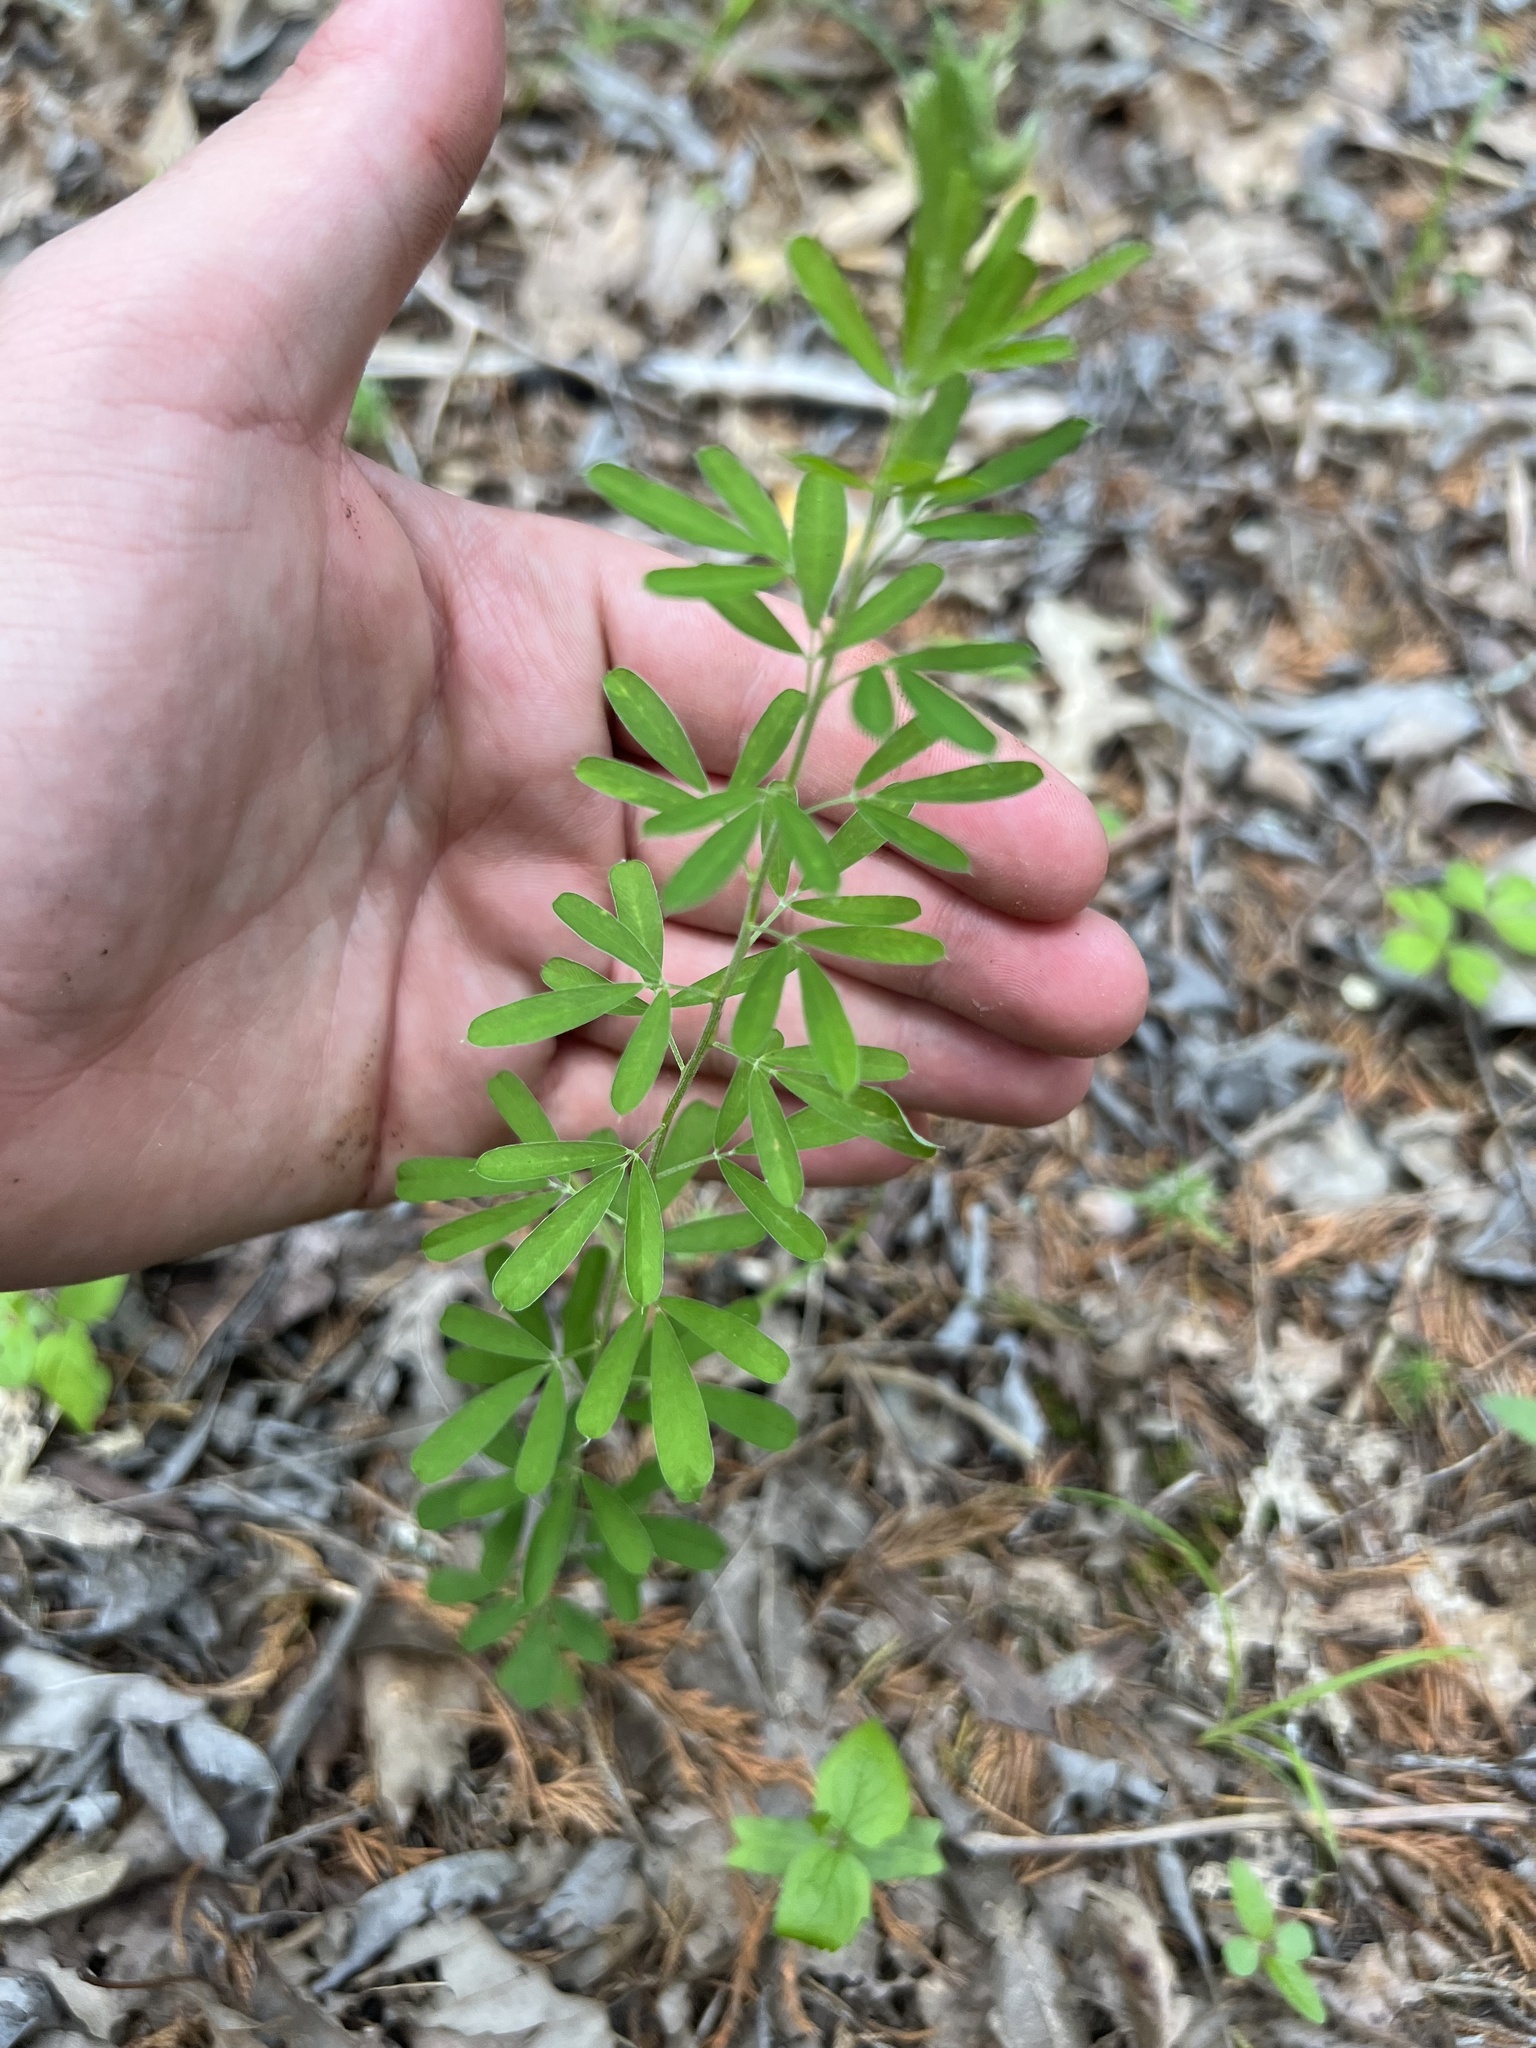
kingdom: Plantae
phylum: Tracheophyta
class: Magnoliopsida
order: Fabales
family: Fabaceae
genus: Lespedeza
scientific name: Lespedeza cuneata
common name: Chinese bush-clover
